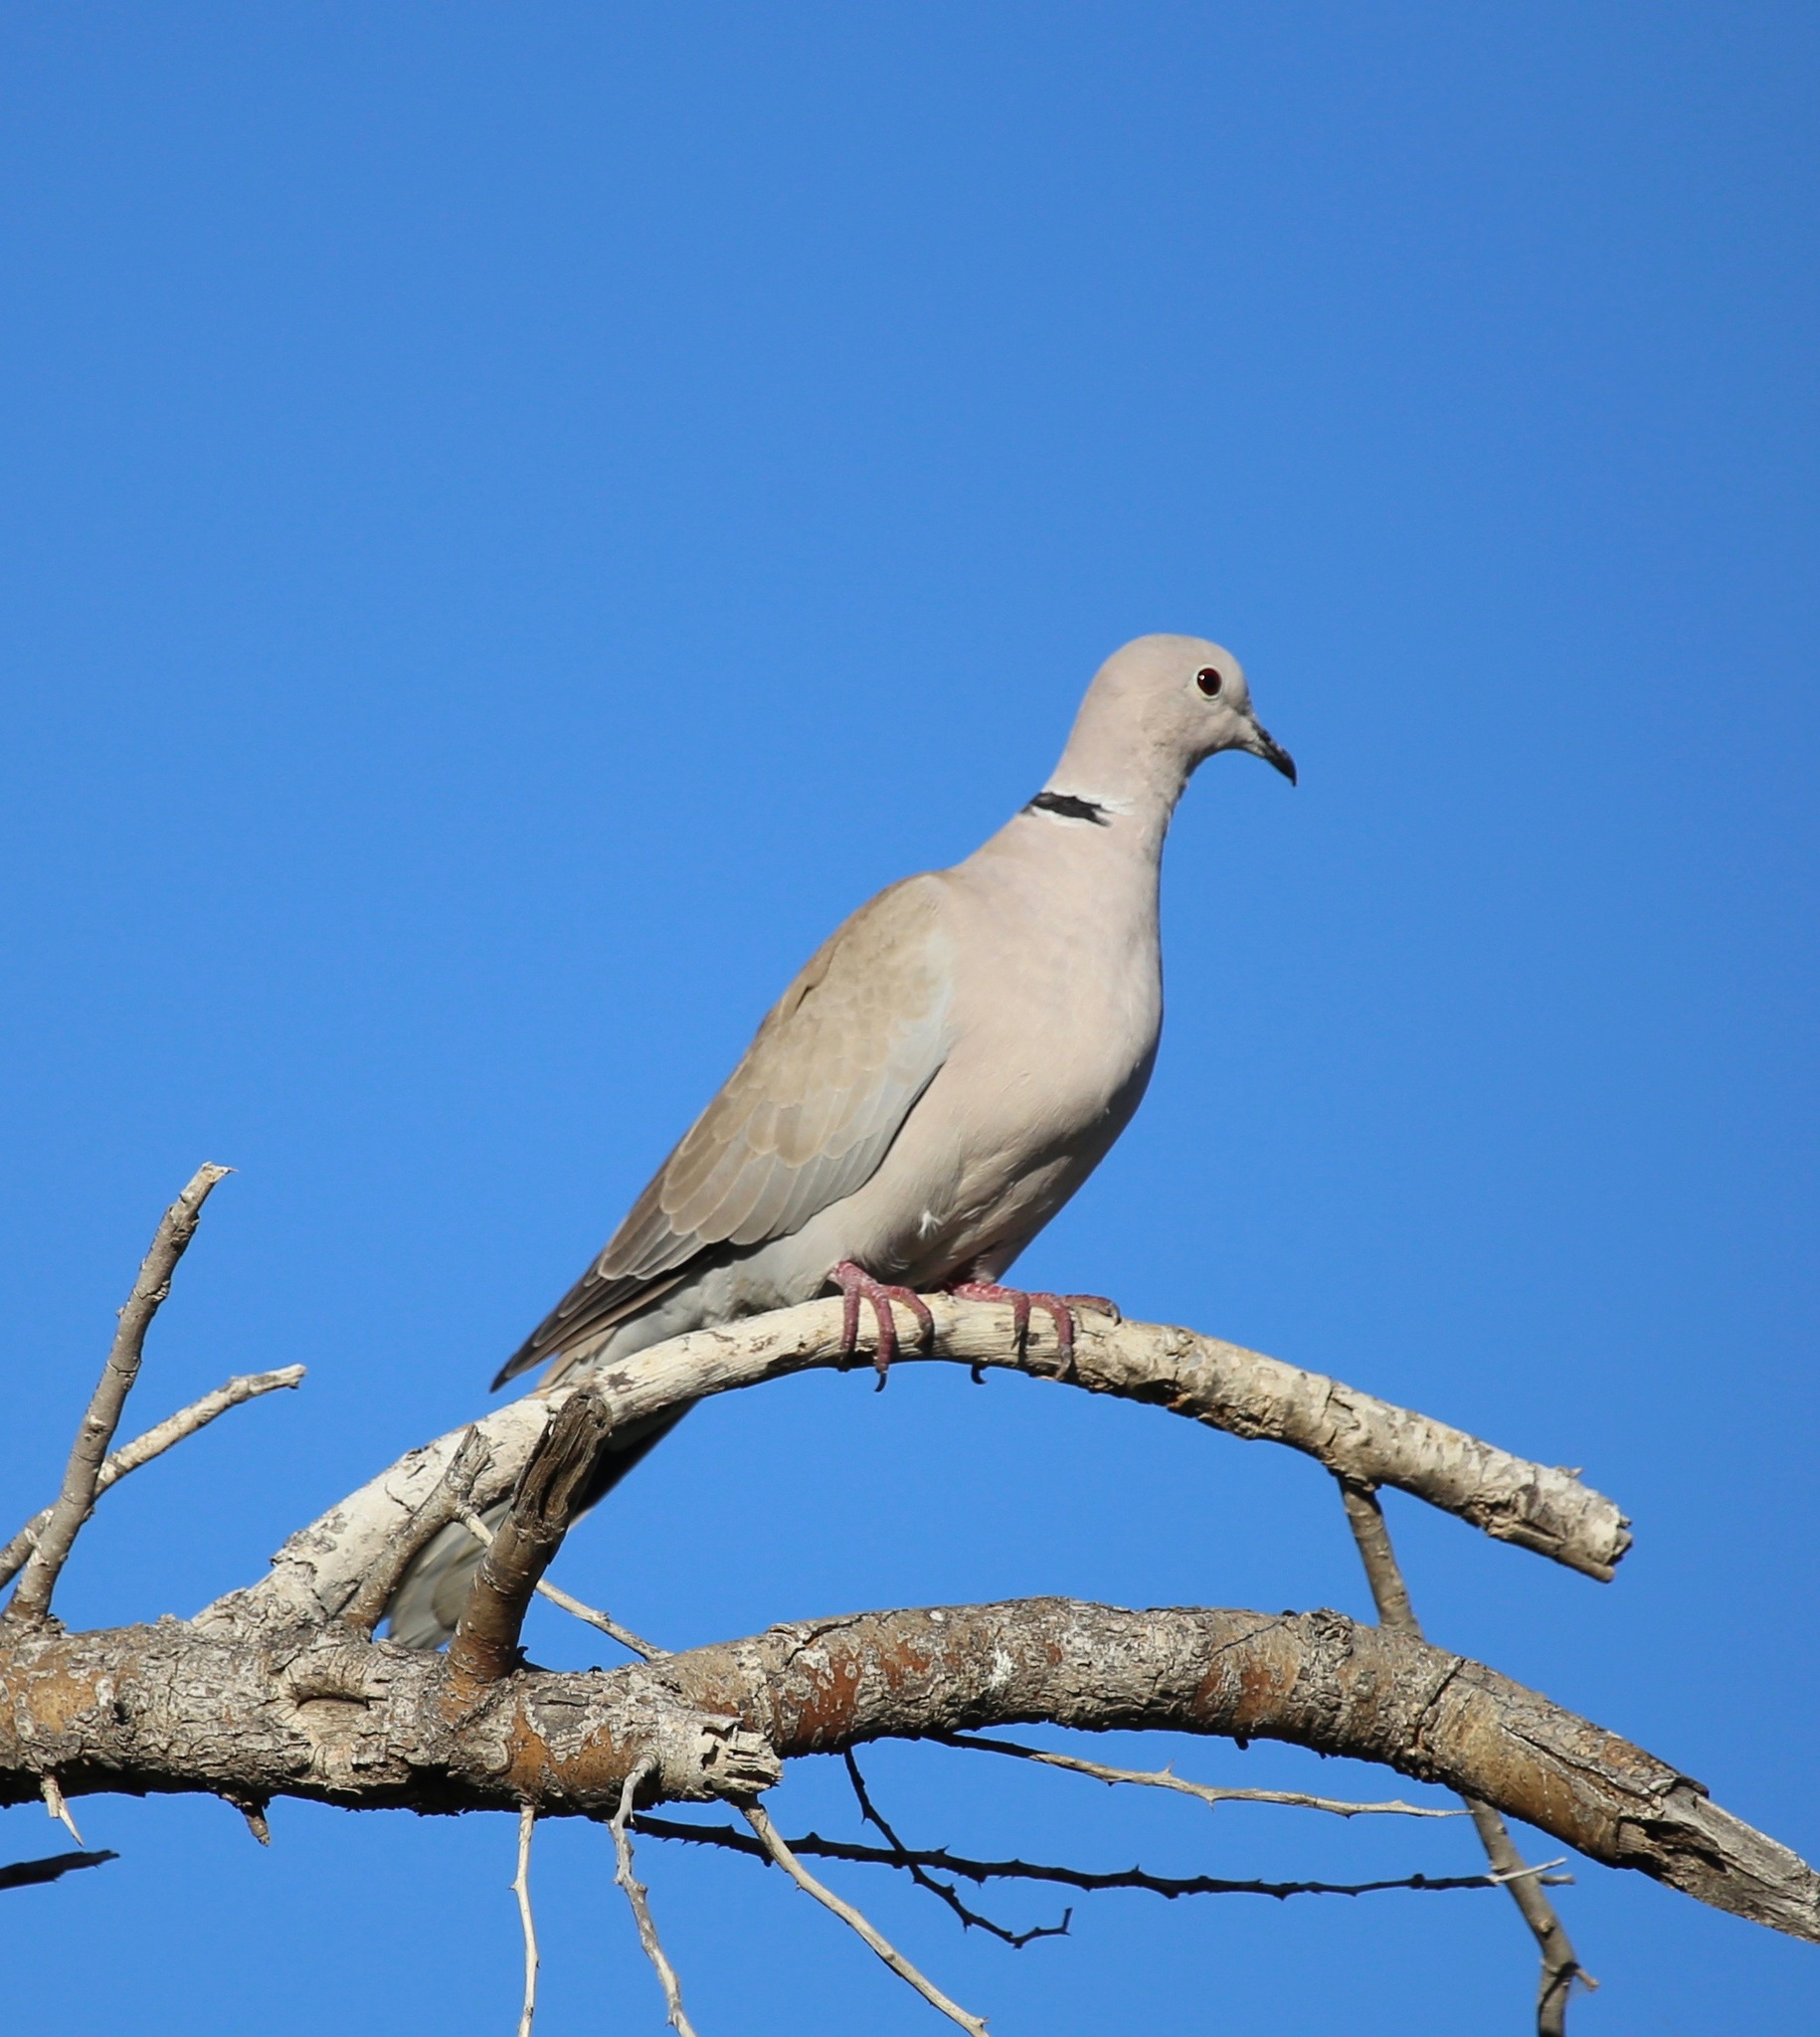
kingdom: Animalia
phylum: Chordata
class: Aves
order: Columbiformes
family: Columbidae
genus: Streptopelia
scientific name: Streptopelia decaocto
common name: Eurasian collared dove
